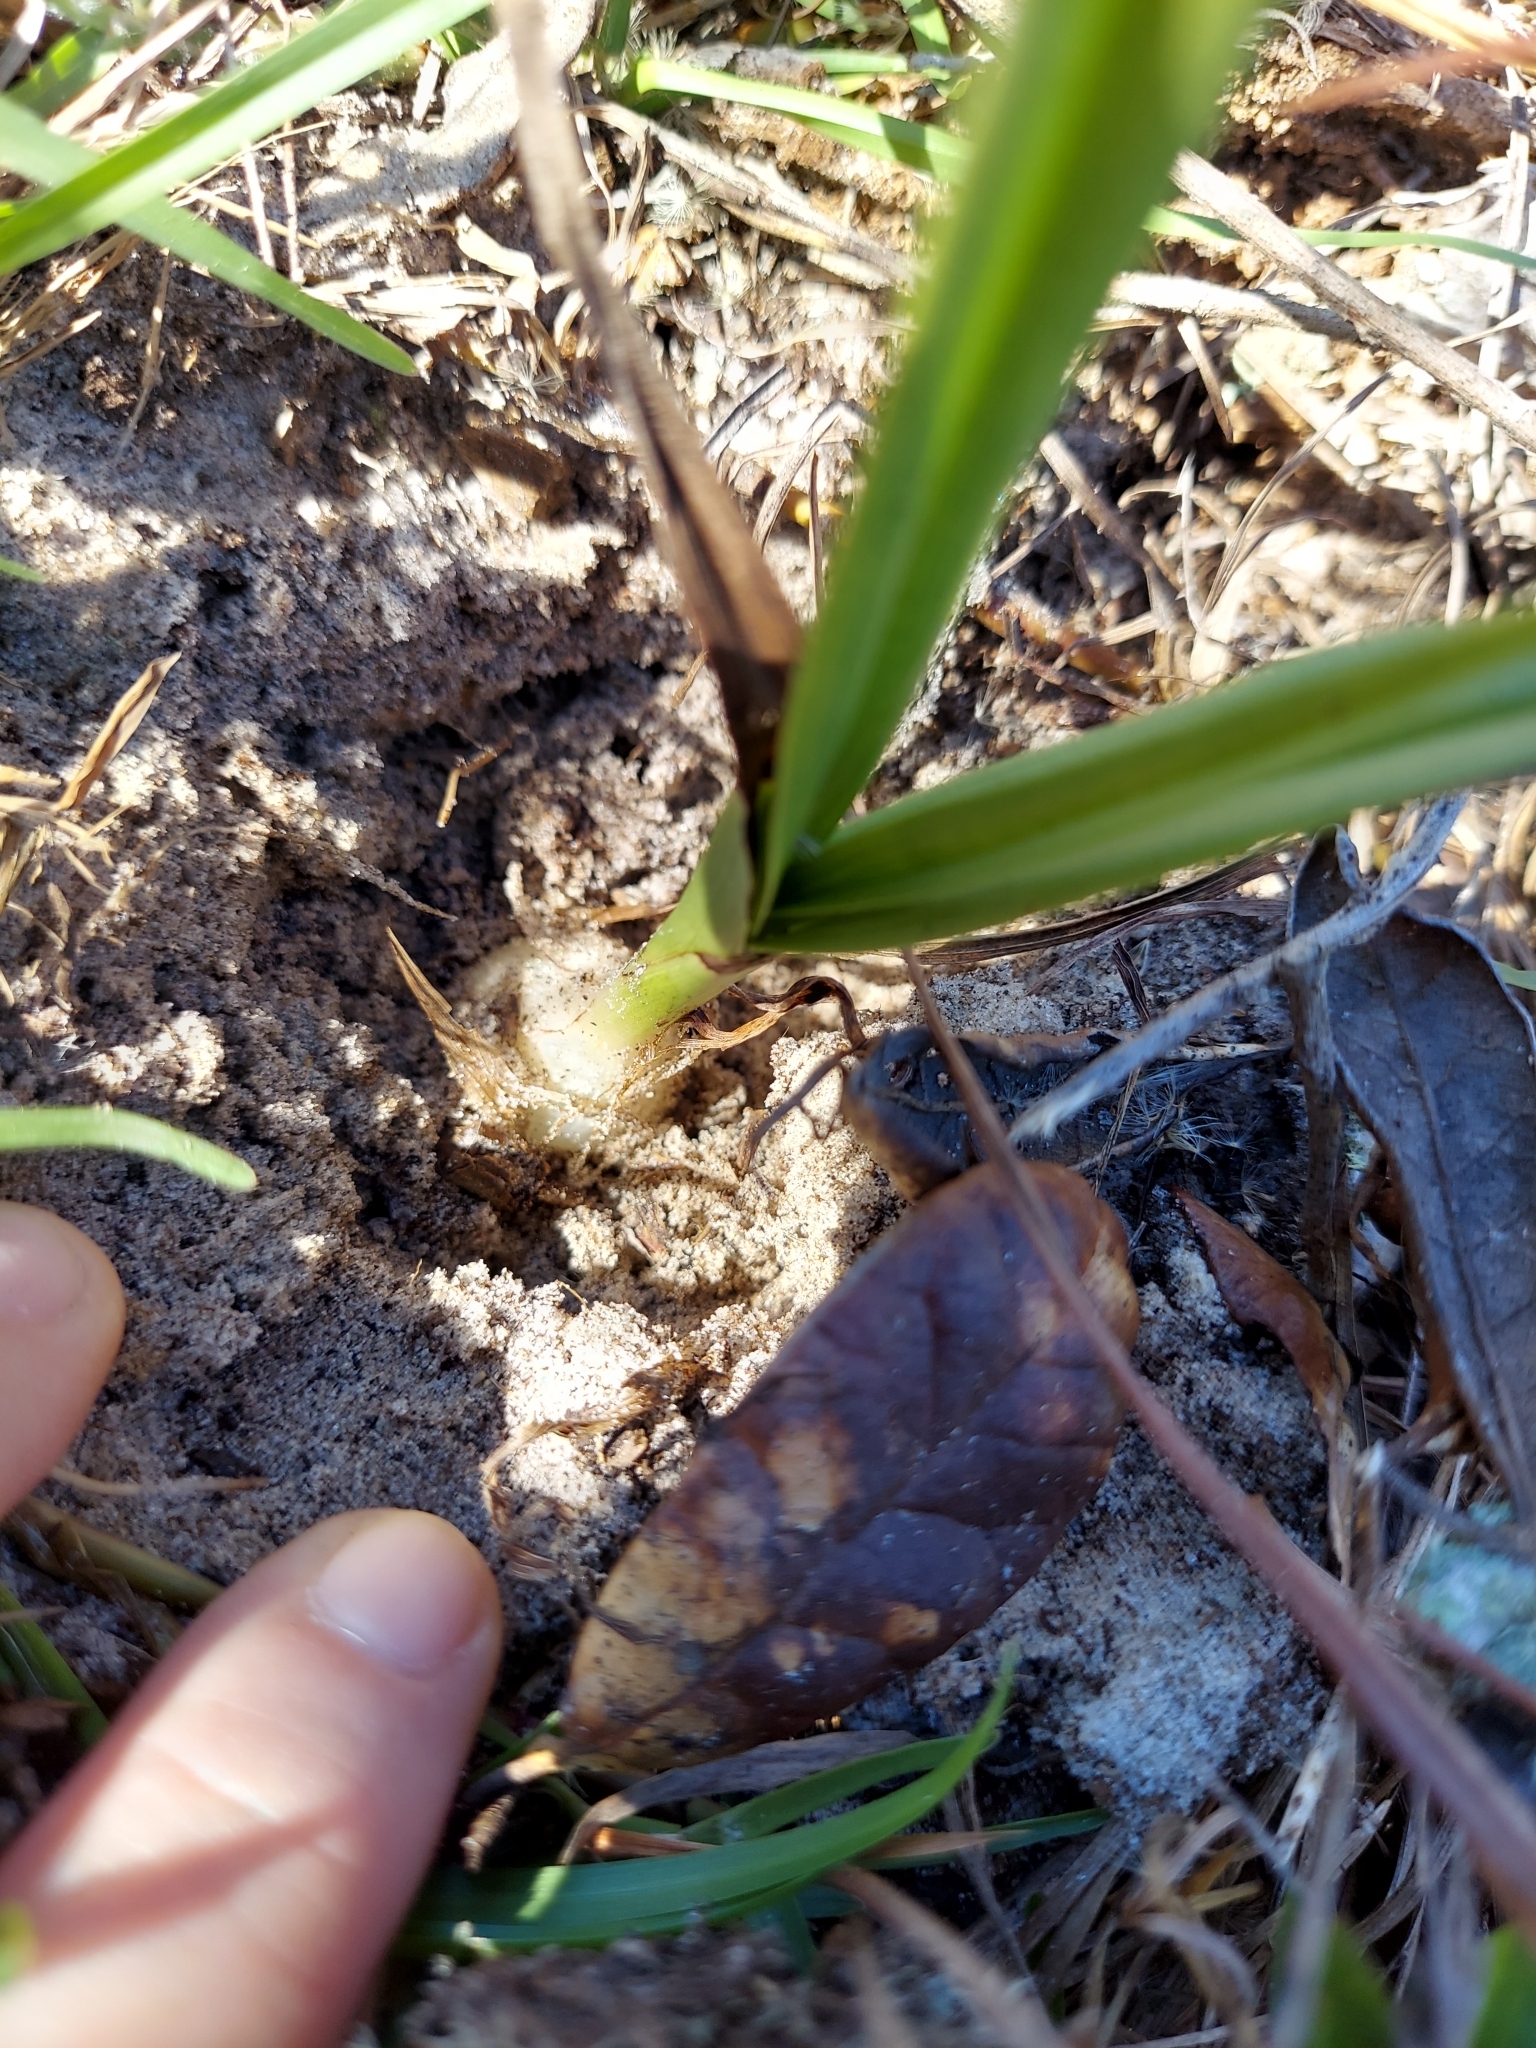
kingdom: Plantae
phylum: Tracheophyta
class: Liliopsida
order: Asparagales
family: Orchidaceae
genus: Eulophia
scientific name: Eulophia graminea
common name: Orchid
